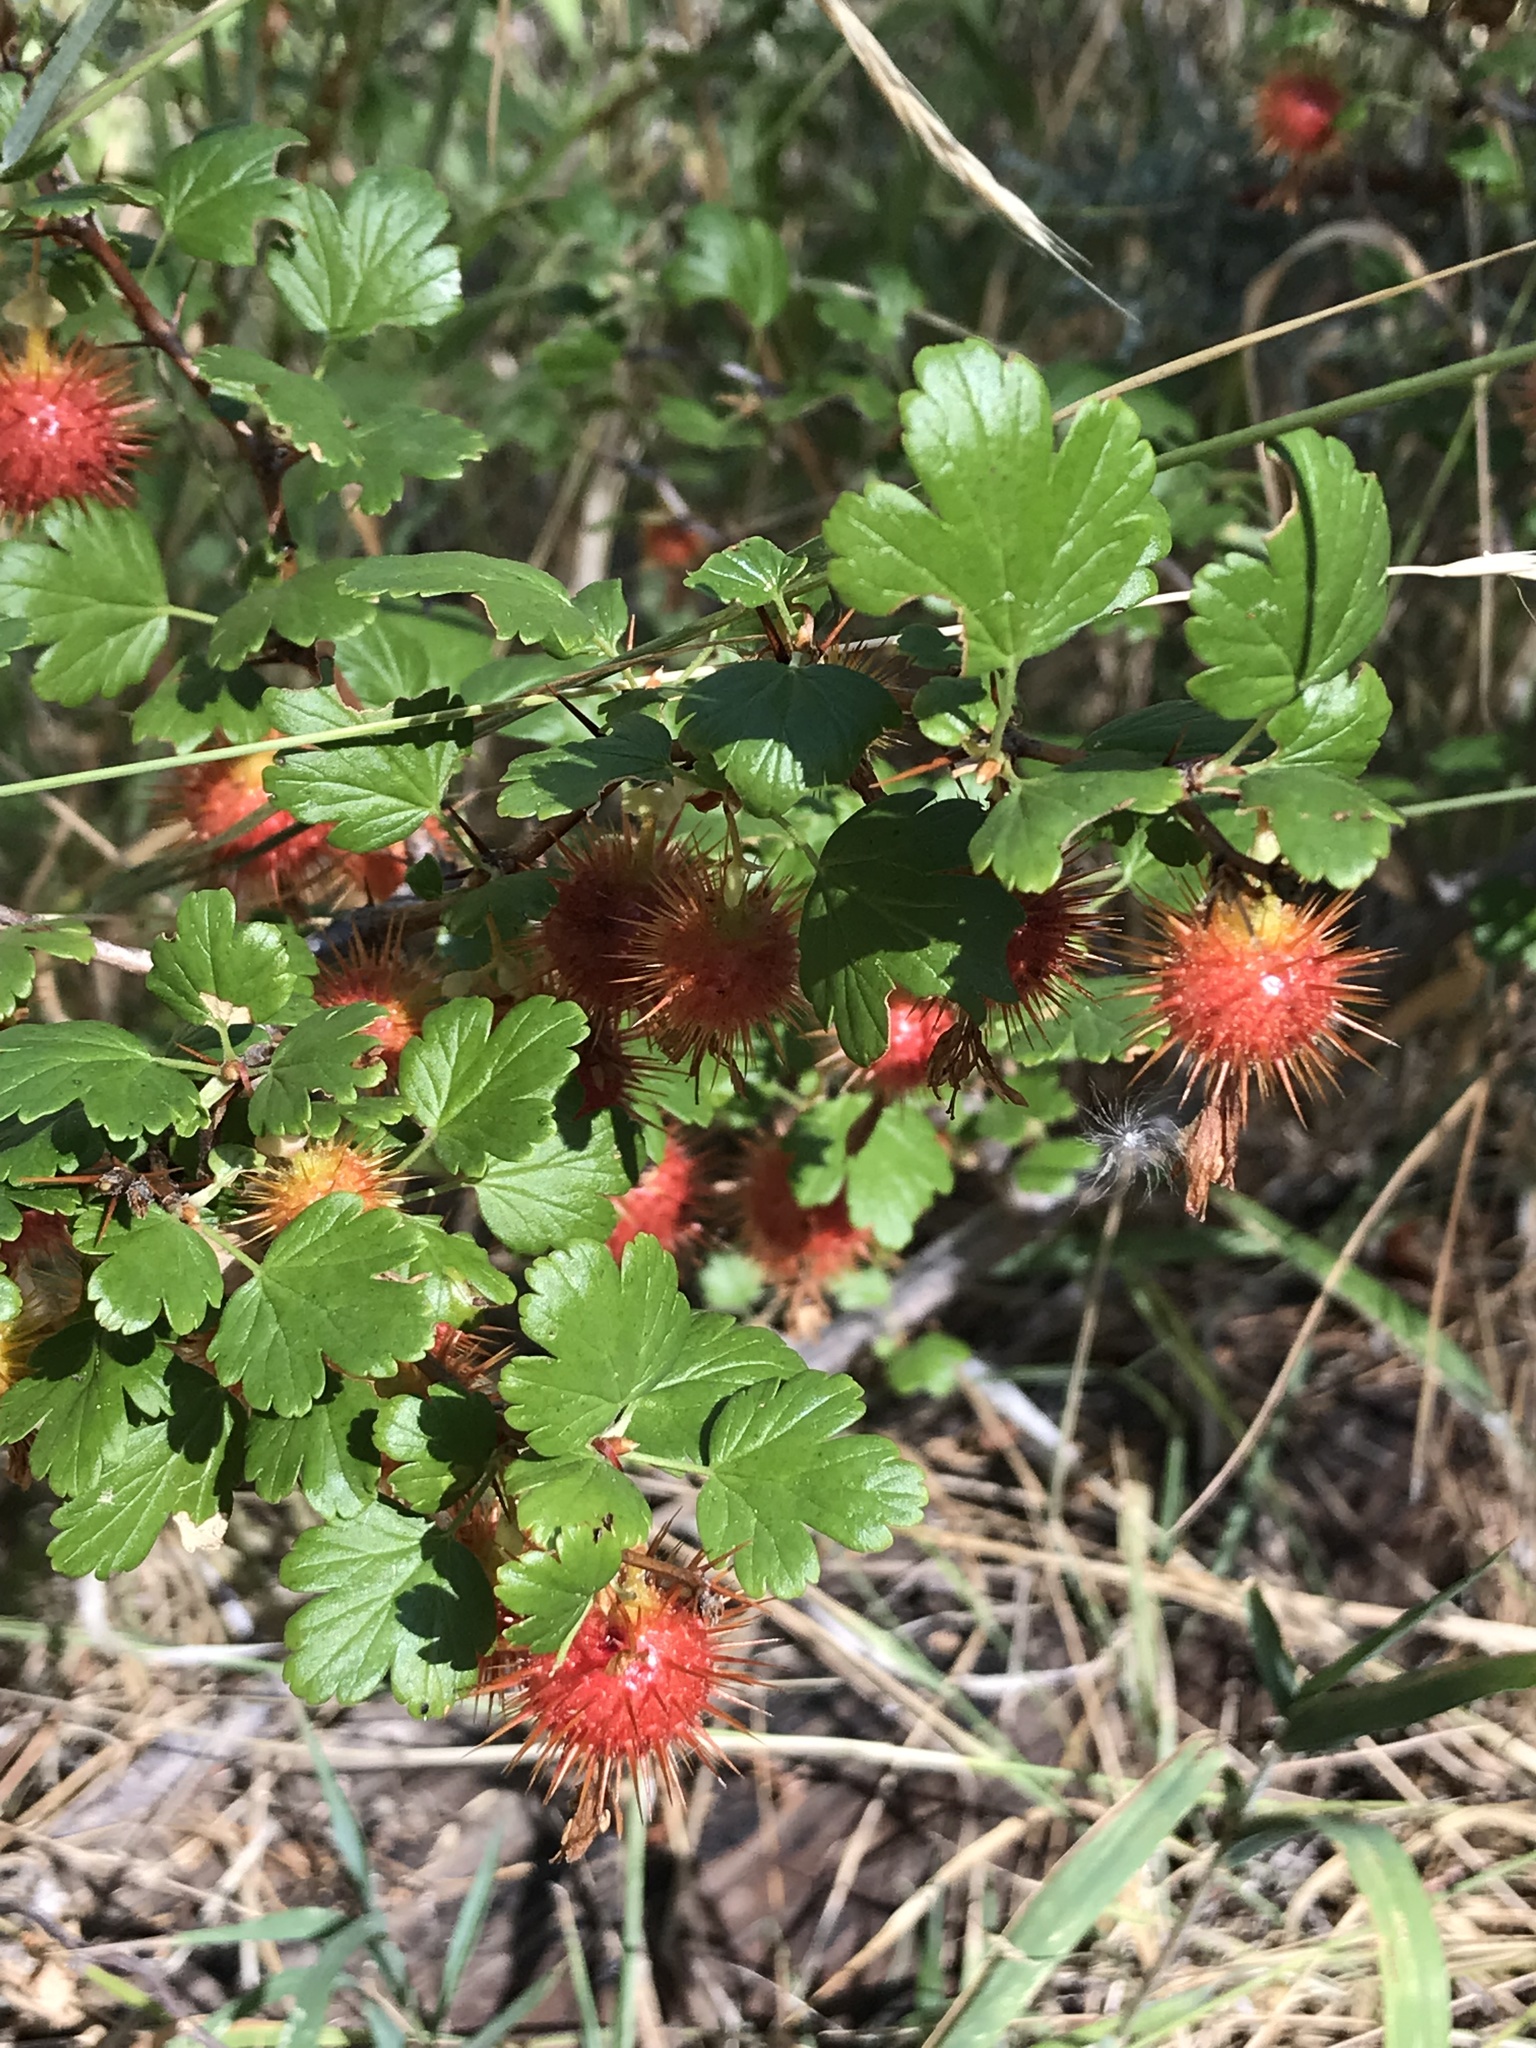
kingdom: Plantae
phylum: Tracheophyta
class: Magnoliopsida
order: Saxifragales
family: Grossulariaceae
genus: Ribes
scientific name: Ribes roezlii
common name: Sierra gooseberry
